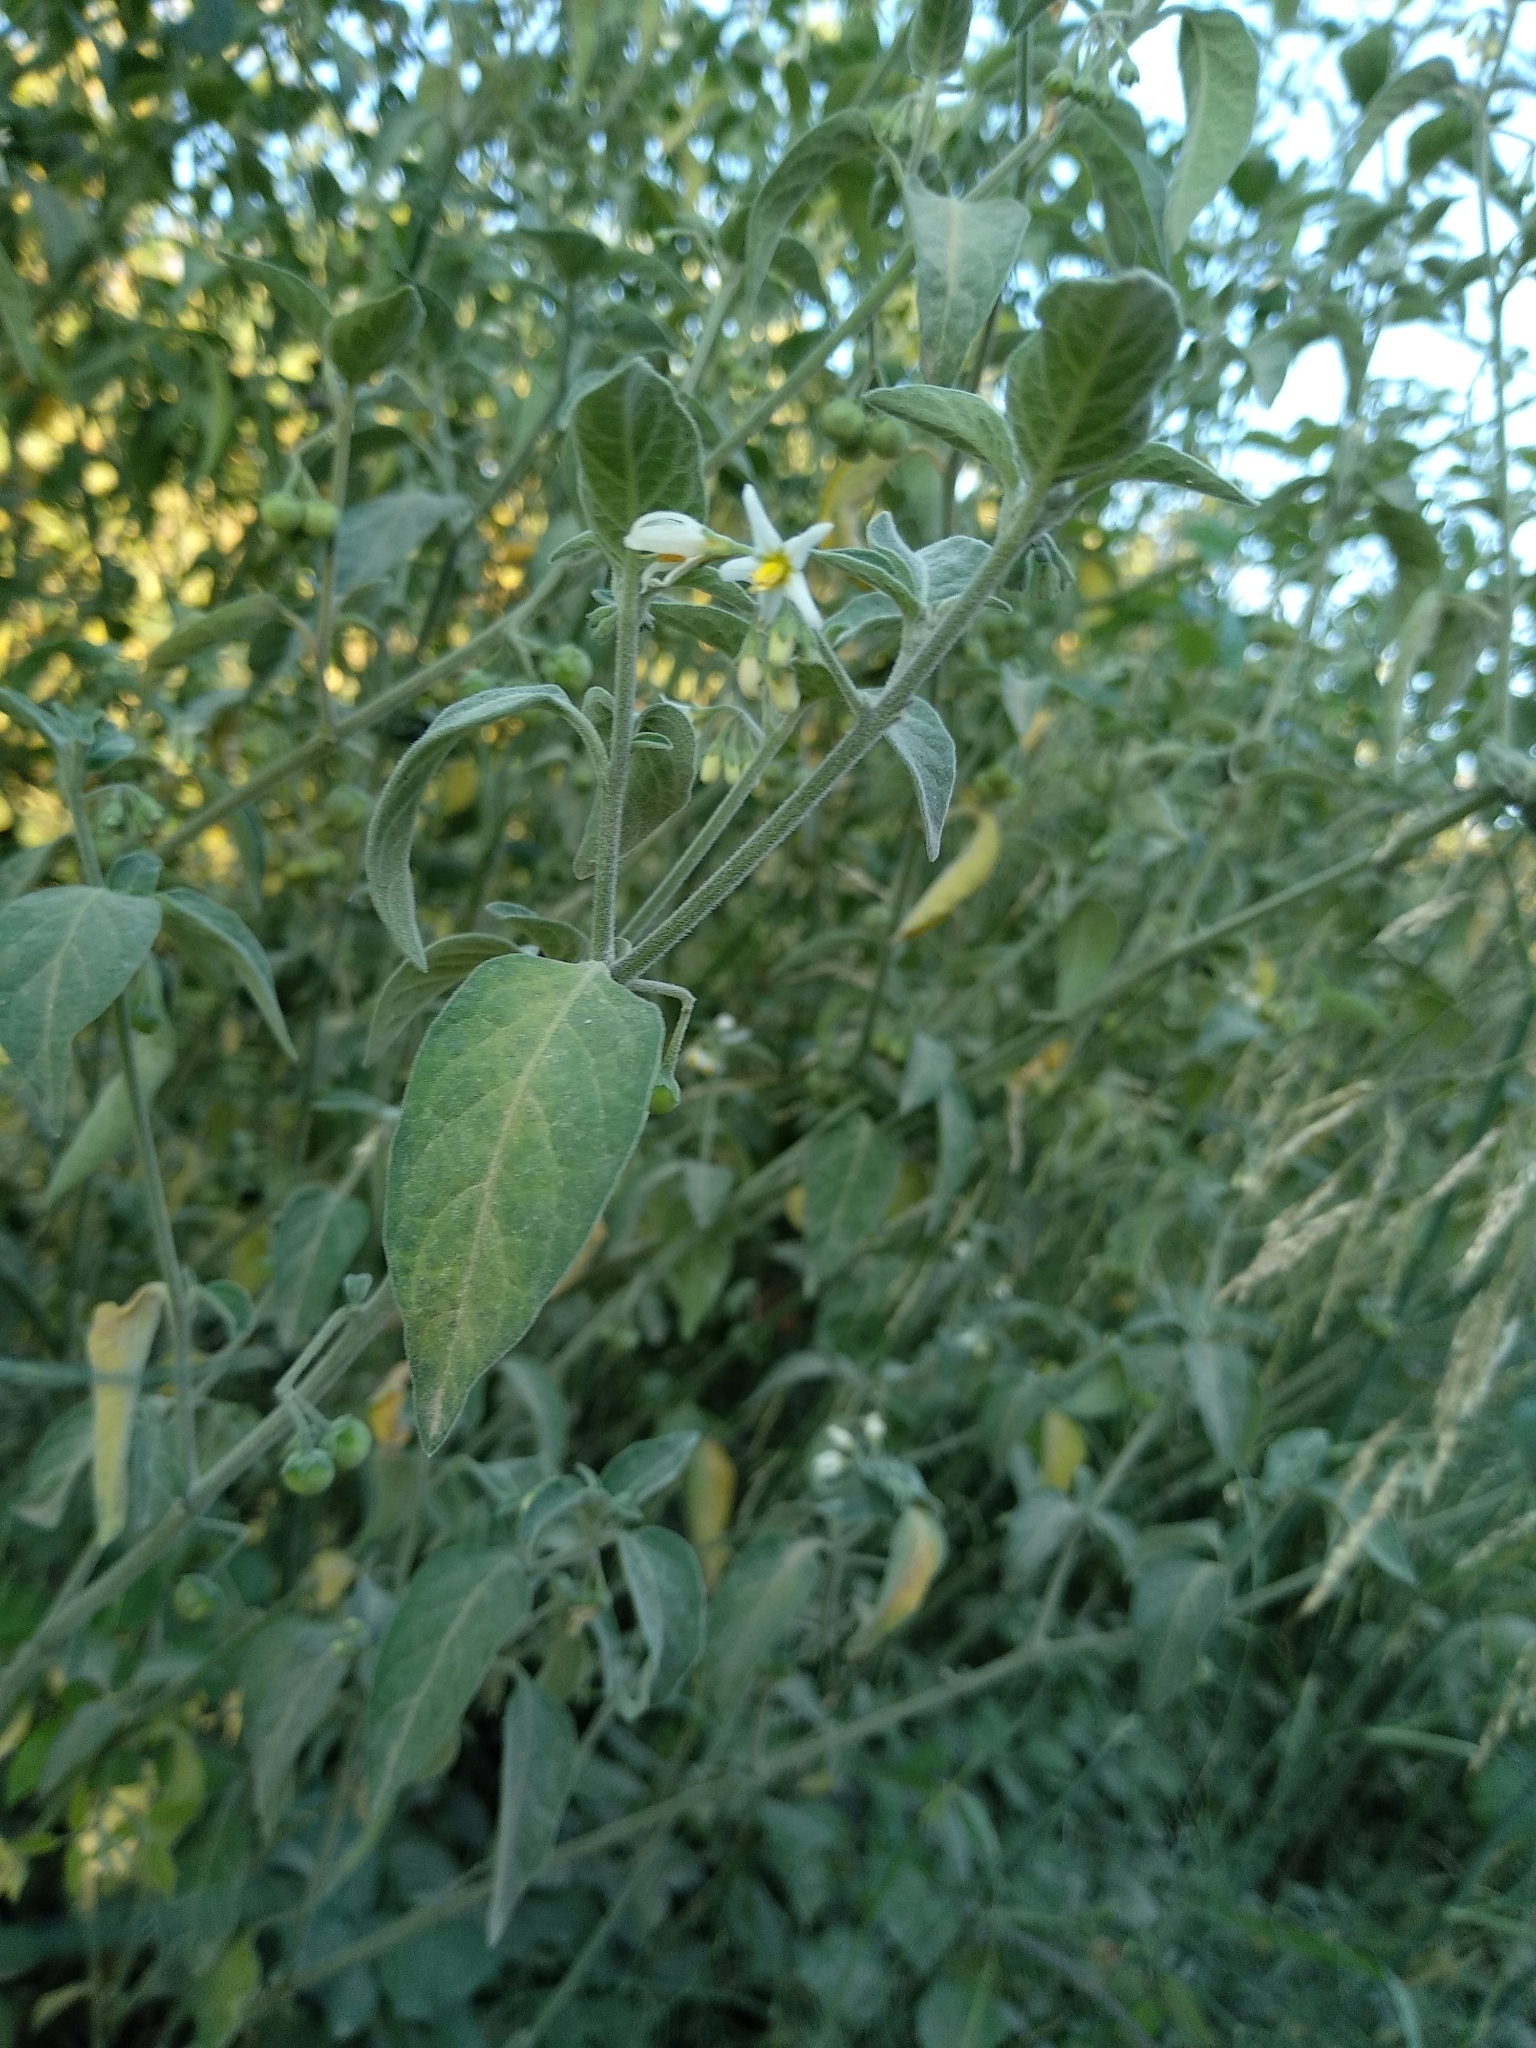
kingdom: Plantae
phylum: Tracheophyta
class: Magnoliopsida
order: Solanales
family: Solanaceae
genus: Solanum
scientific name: Solanum chenopodioides
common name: Tall nightshade
